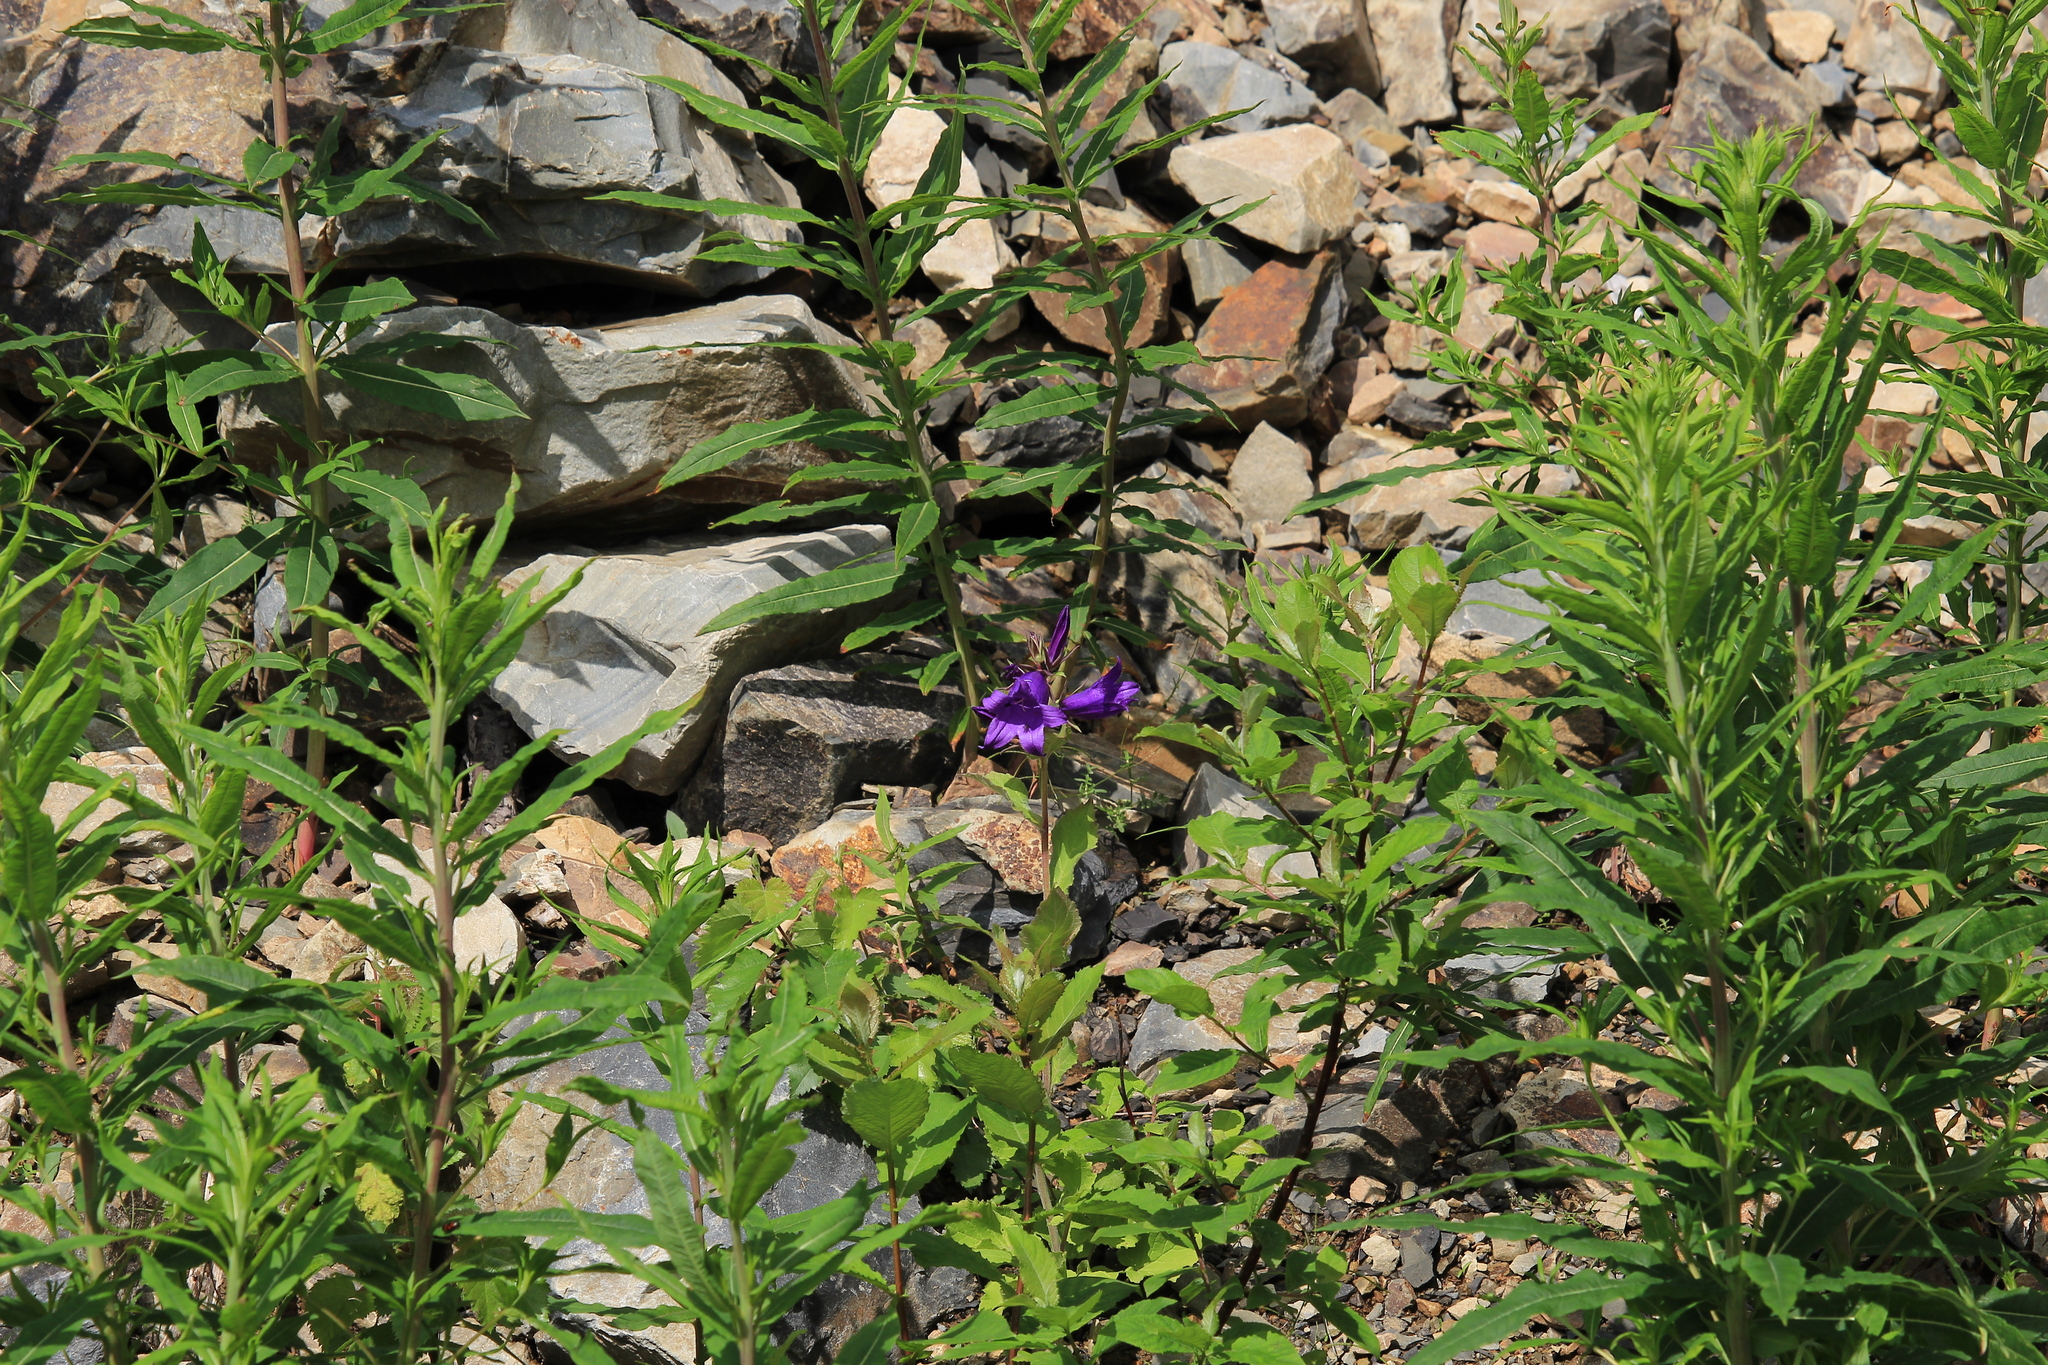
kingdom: Plantae
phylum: Tracheophyta
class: Magnoliopsida
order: Asterales
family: Campanulaceae
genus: Campanula
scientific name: Campanula latifolia
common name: Giant bellflower
